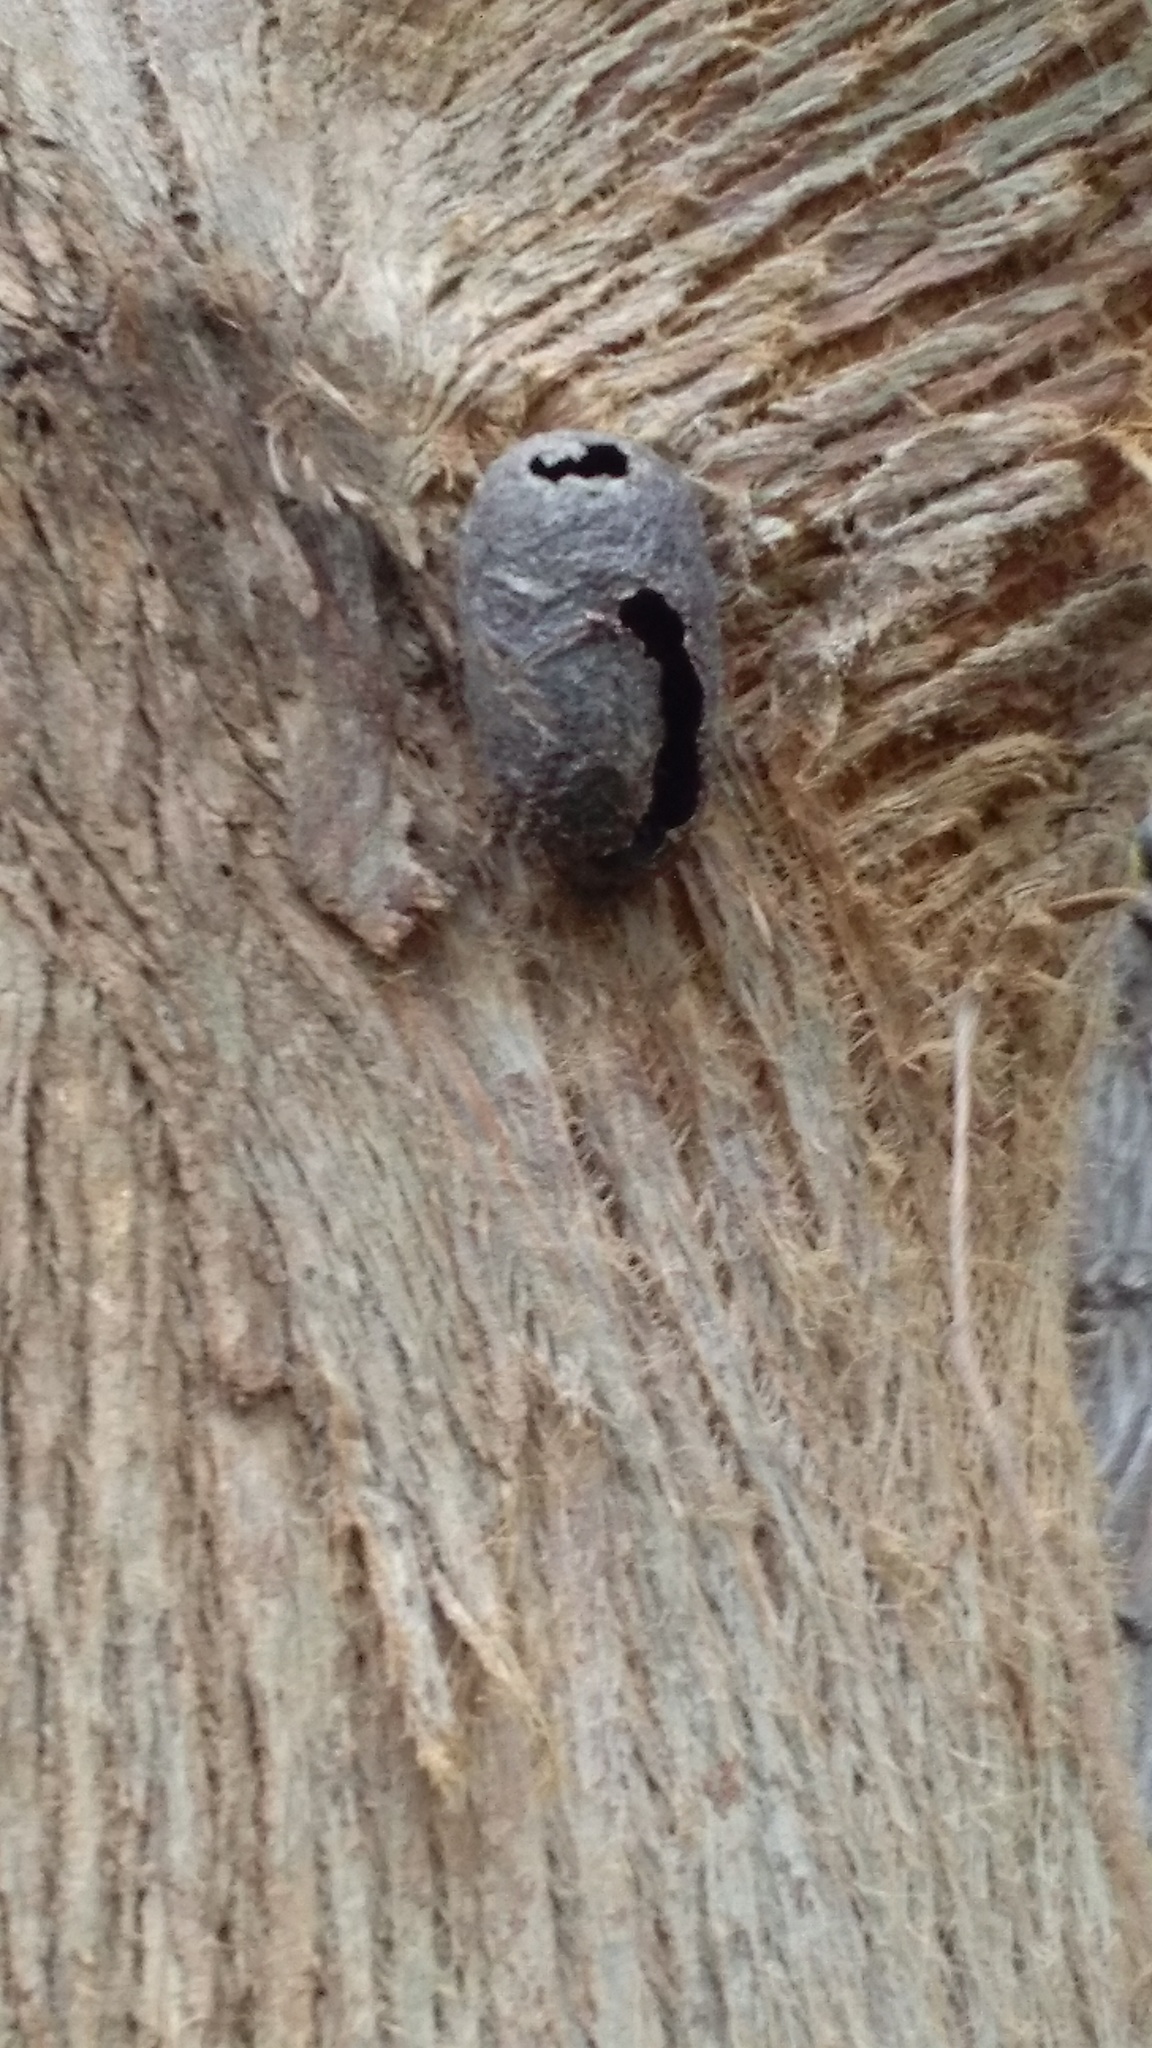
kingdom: Animalia
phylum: Arthropoda
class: Insecta
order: Lepidoptera
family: Saturniidae
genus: Opodiphthera
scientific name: Opodiphthera
